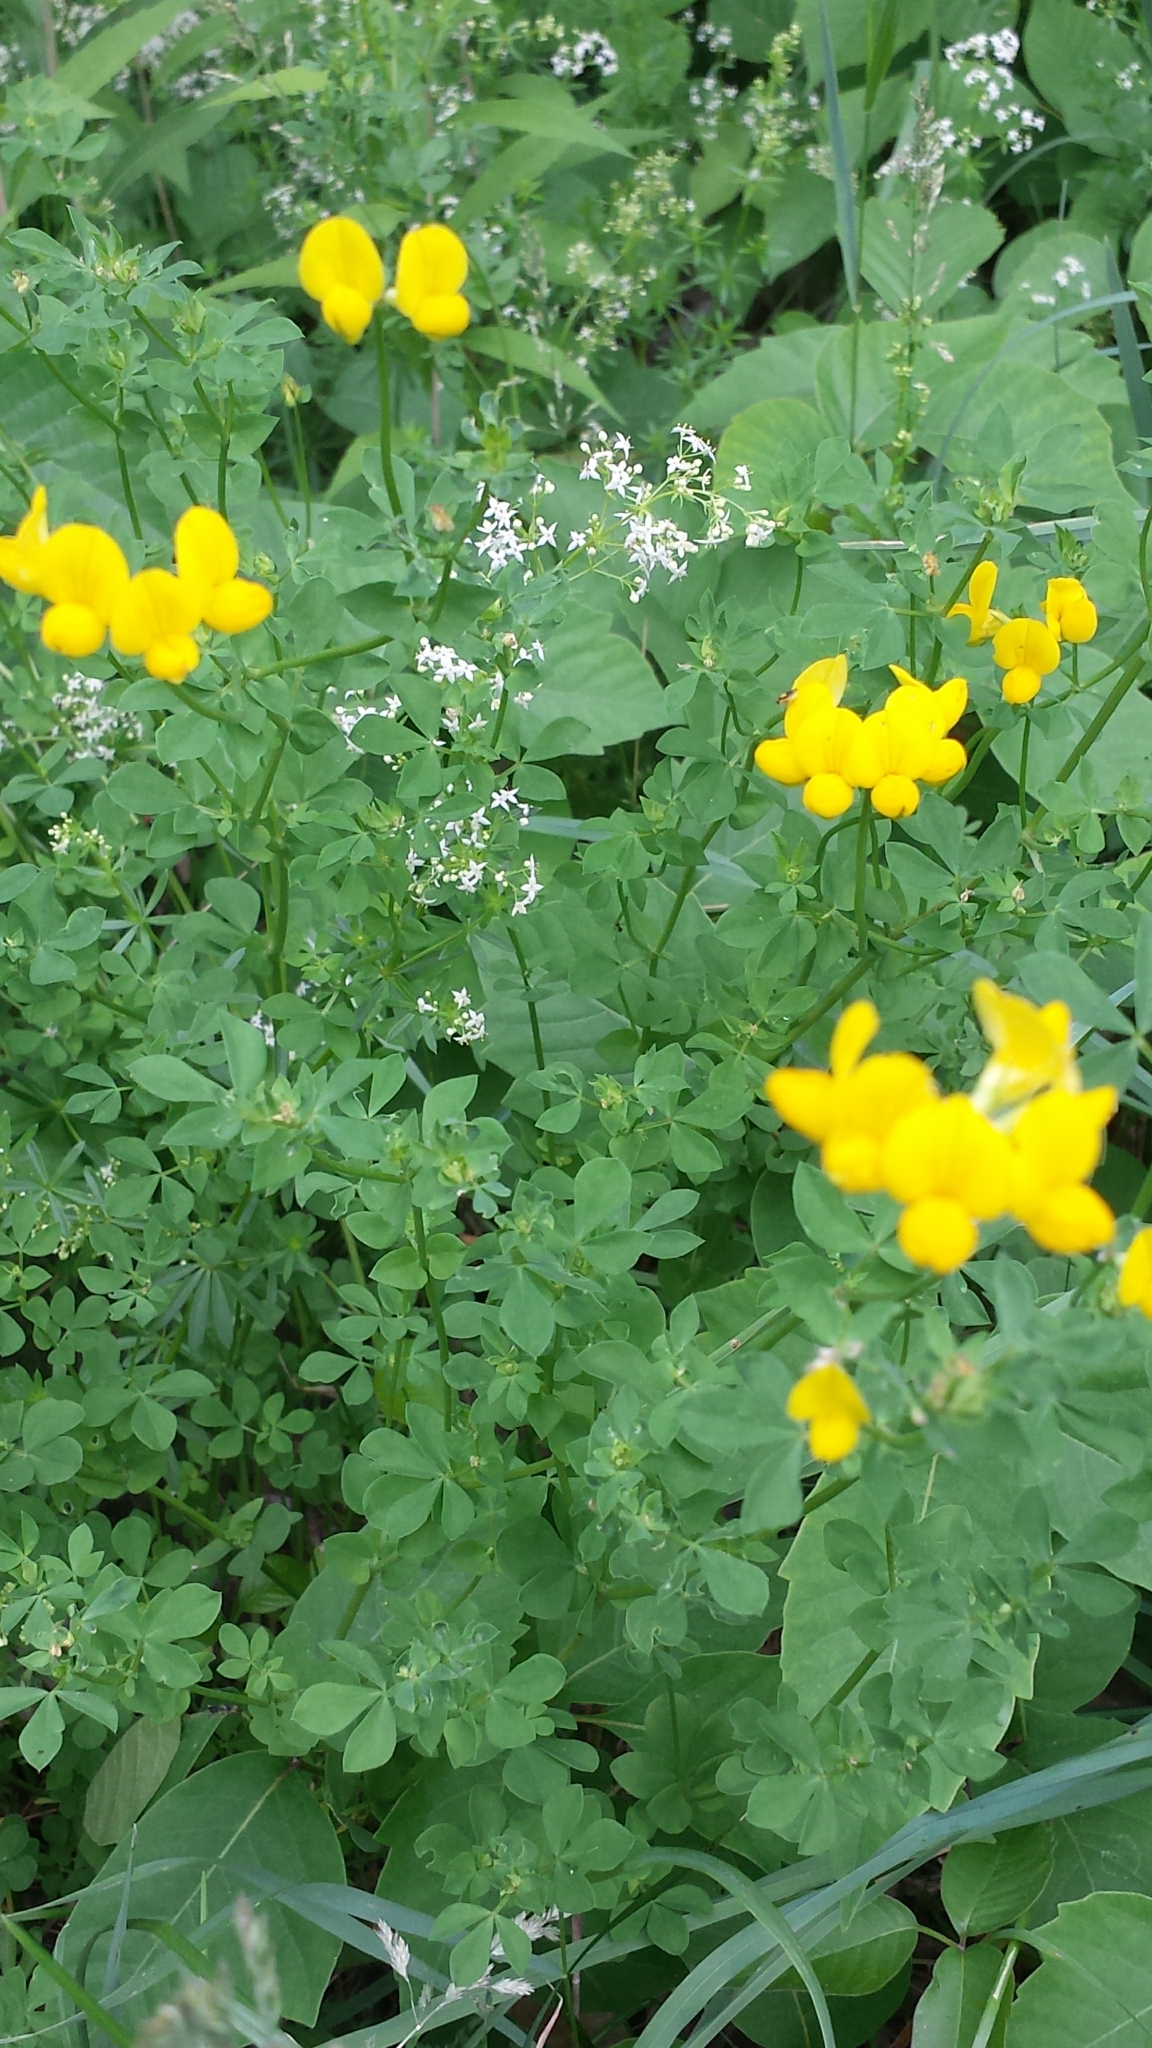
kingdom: Plantae
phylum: Tracheophyta
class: Magnoliopsida
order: Fabales
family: Fabaceae
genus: Lotus
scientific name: Lotus corniculatus
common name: Common bird's-foot-trefoil
